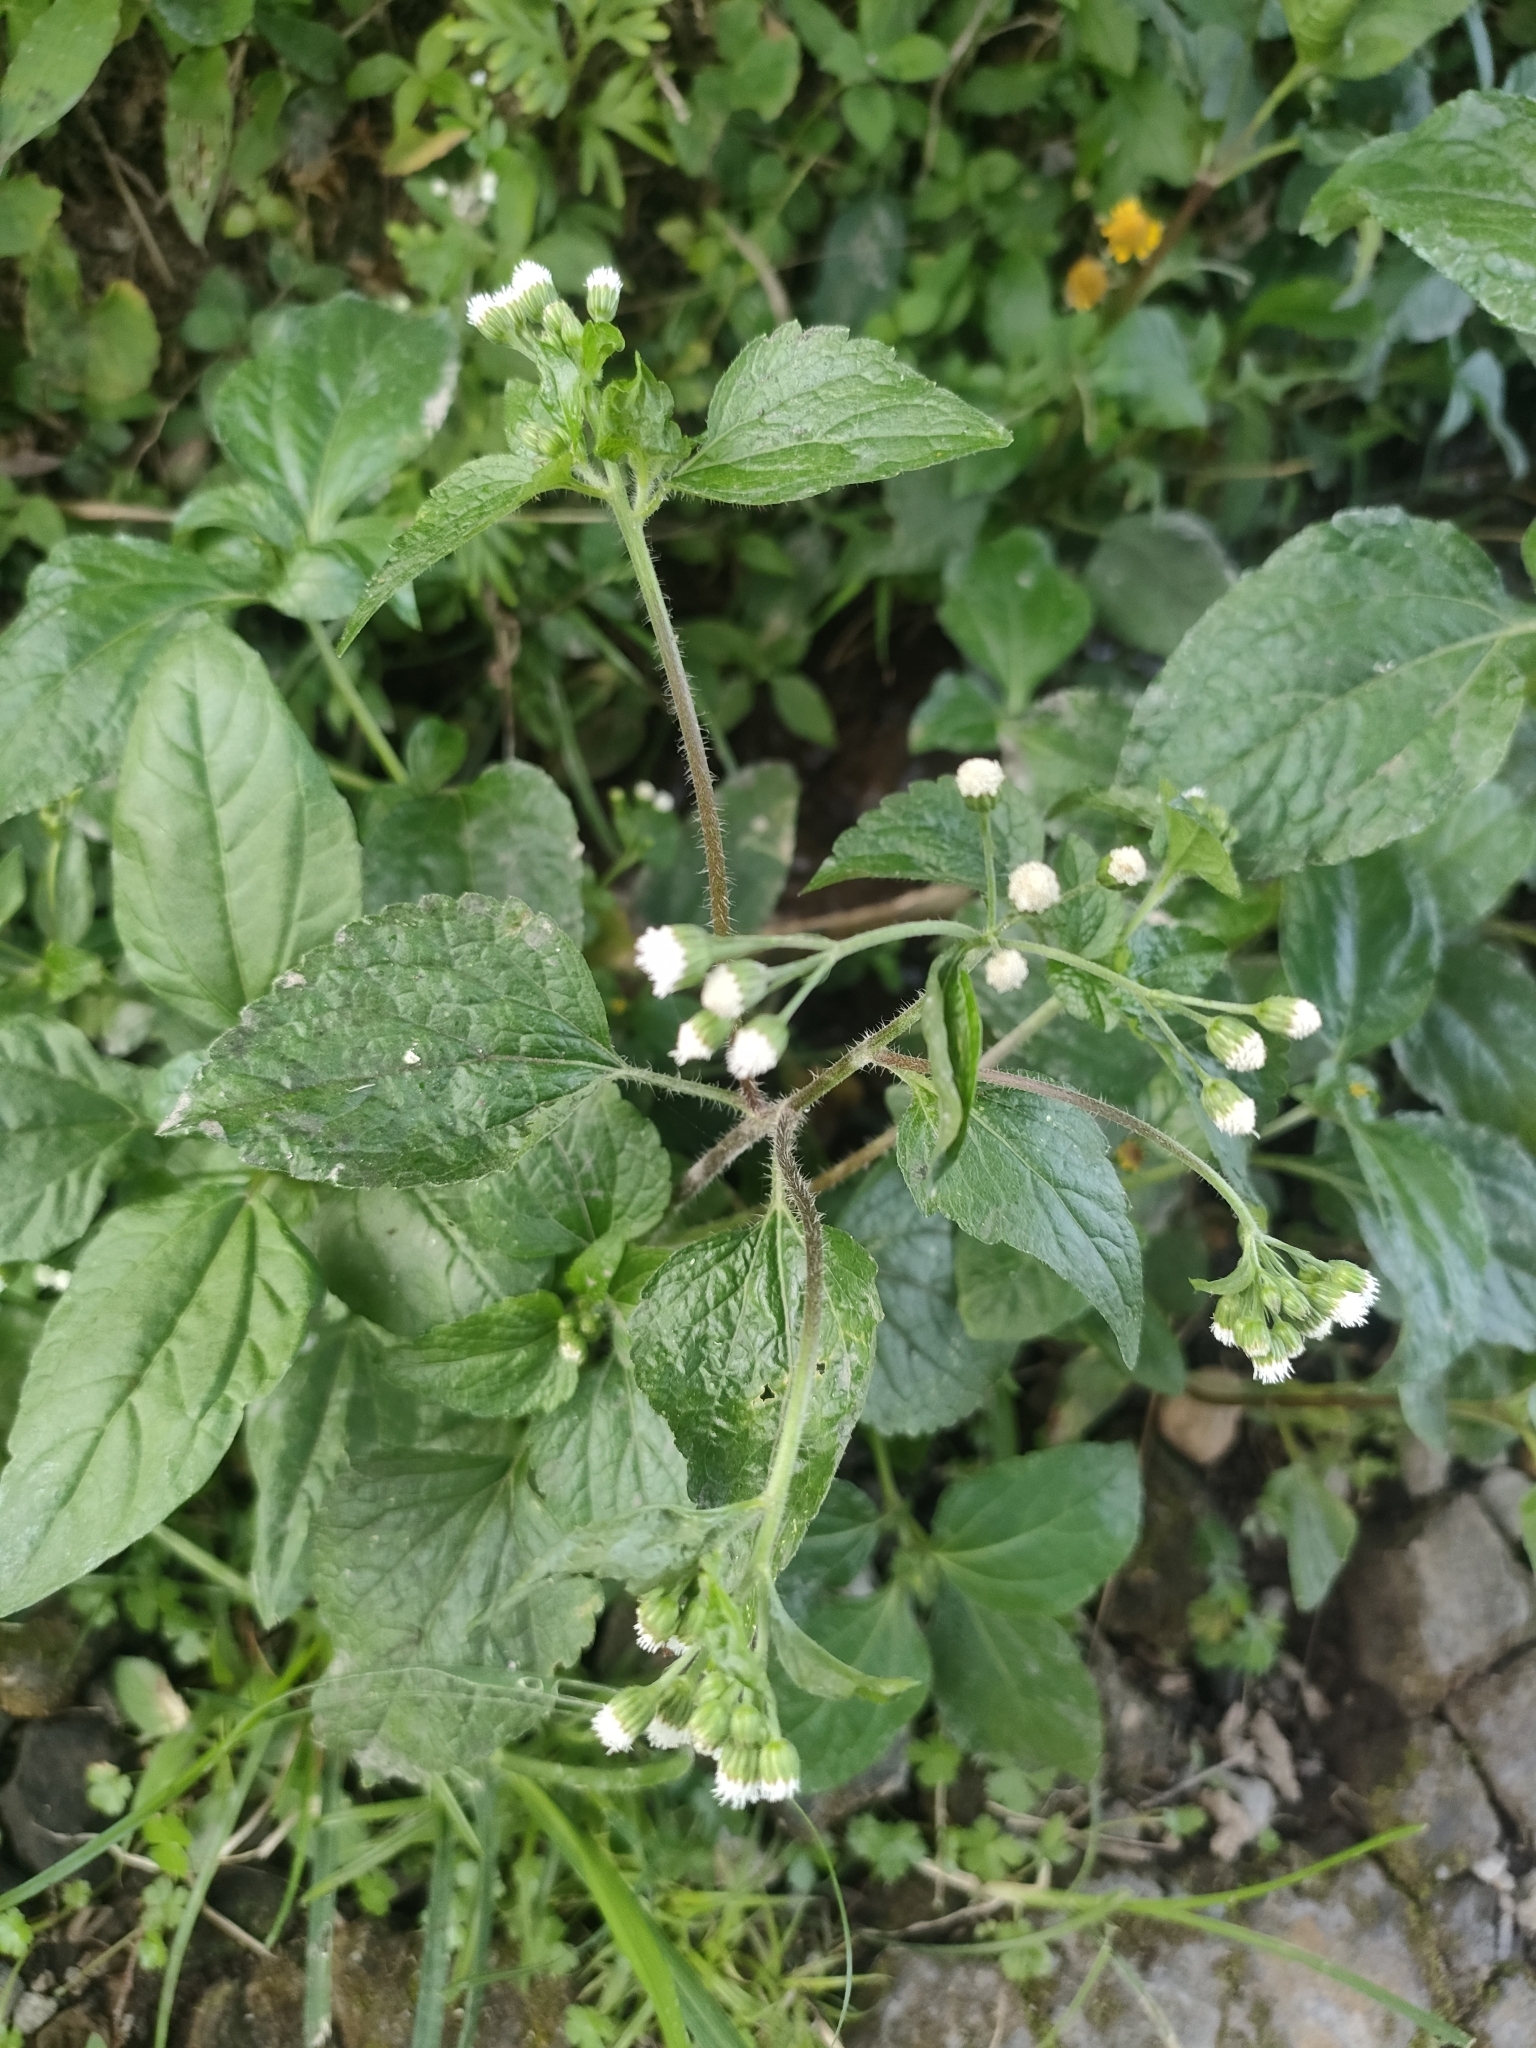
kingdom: Plantae
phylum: Tracheophyta
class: Magnoliopsida
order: Asterales
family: Asteraceae
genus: Ageratum
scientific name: Ageratum conyzoides
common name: Tropical whiteweed
